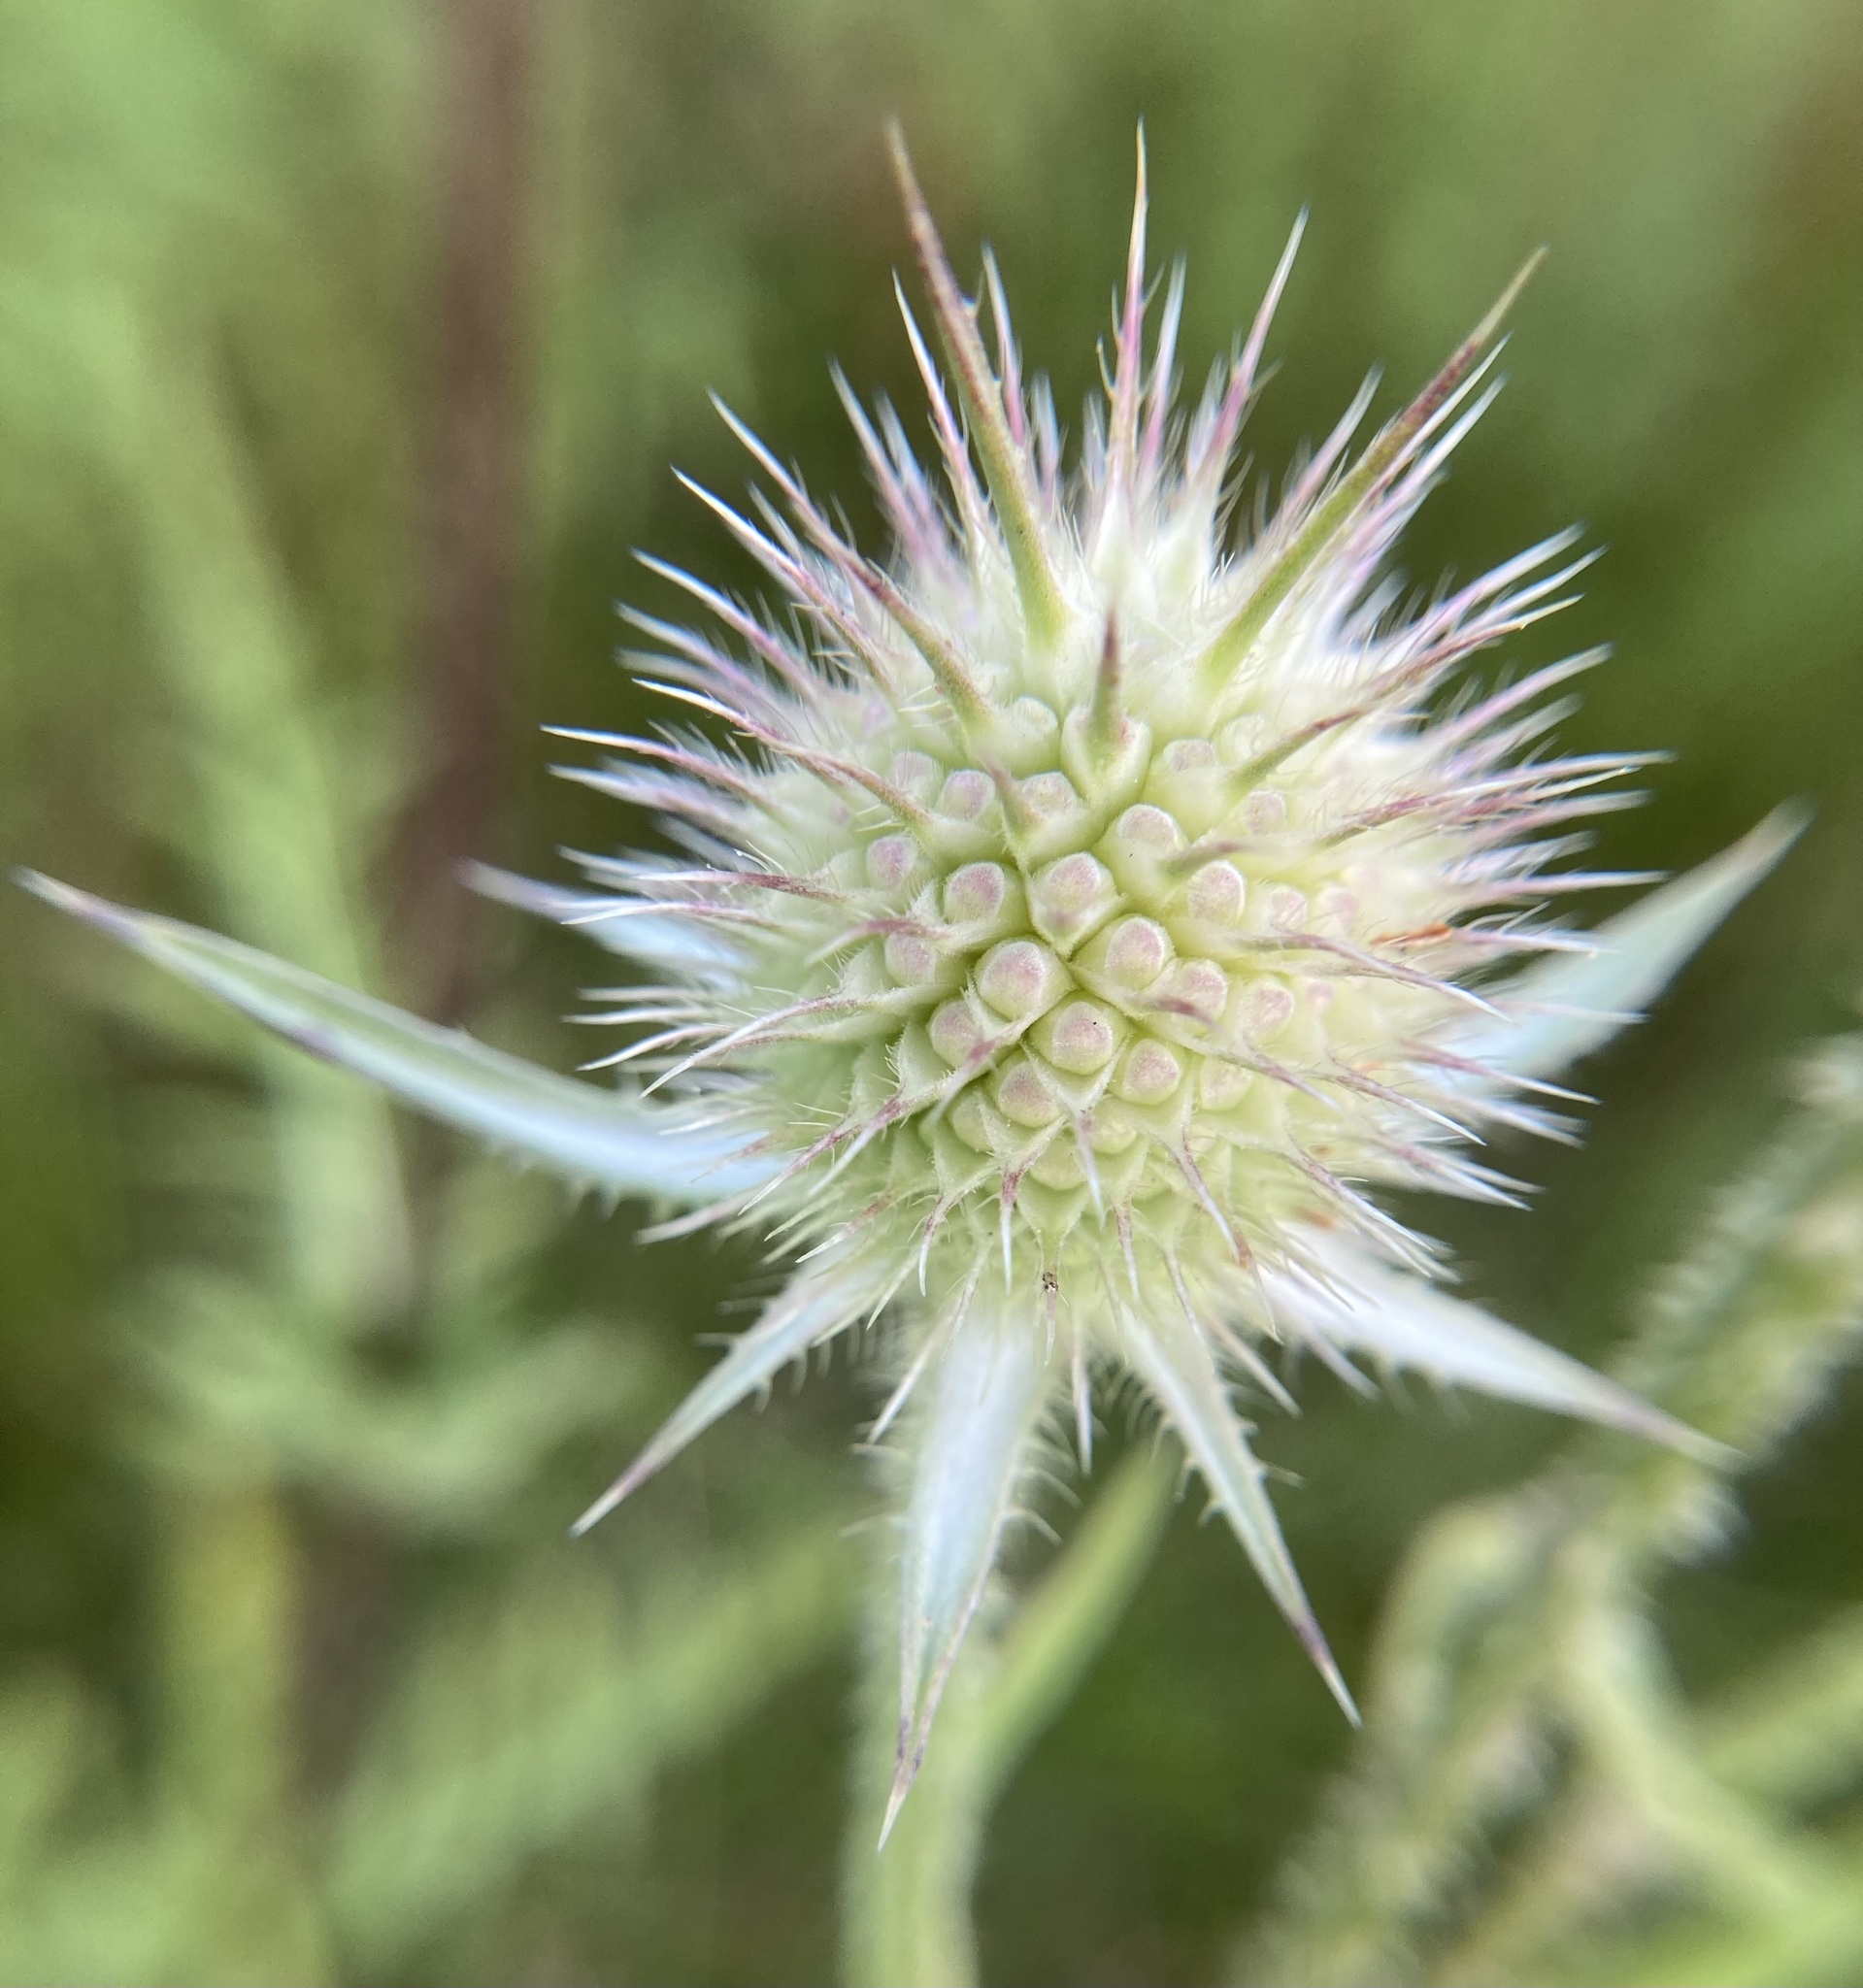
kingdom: Plantae
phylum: Tracheophyta
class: Magnoliopsida
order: Dipsacales
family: Caprifoliaceae
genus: Dipsacus
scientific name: Dipsacus laciniatus
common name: Cut-leaved teasel
